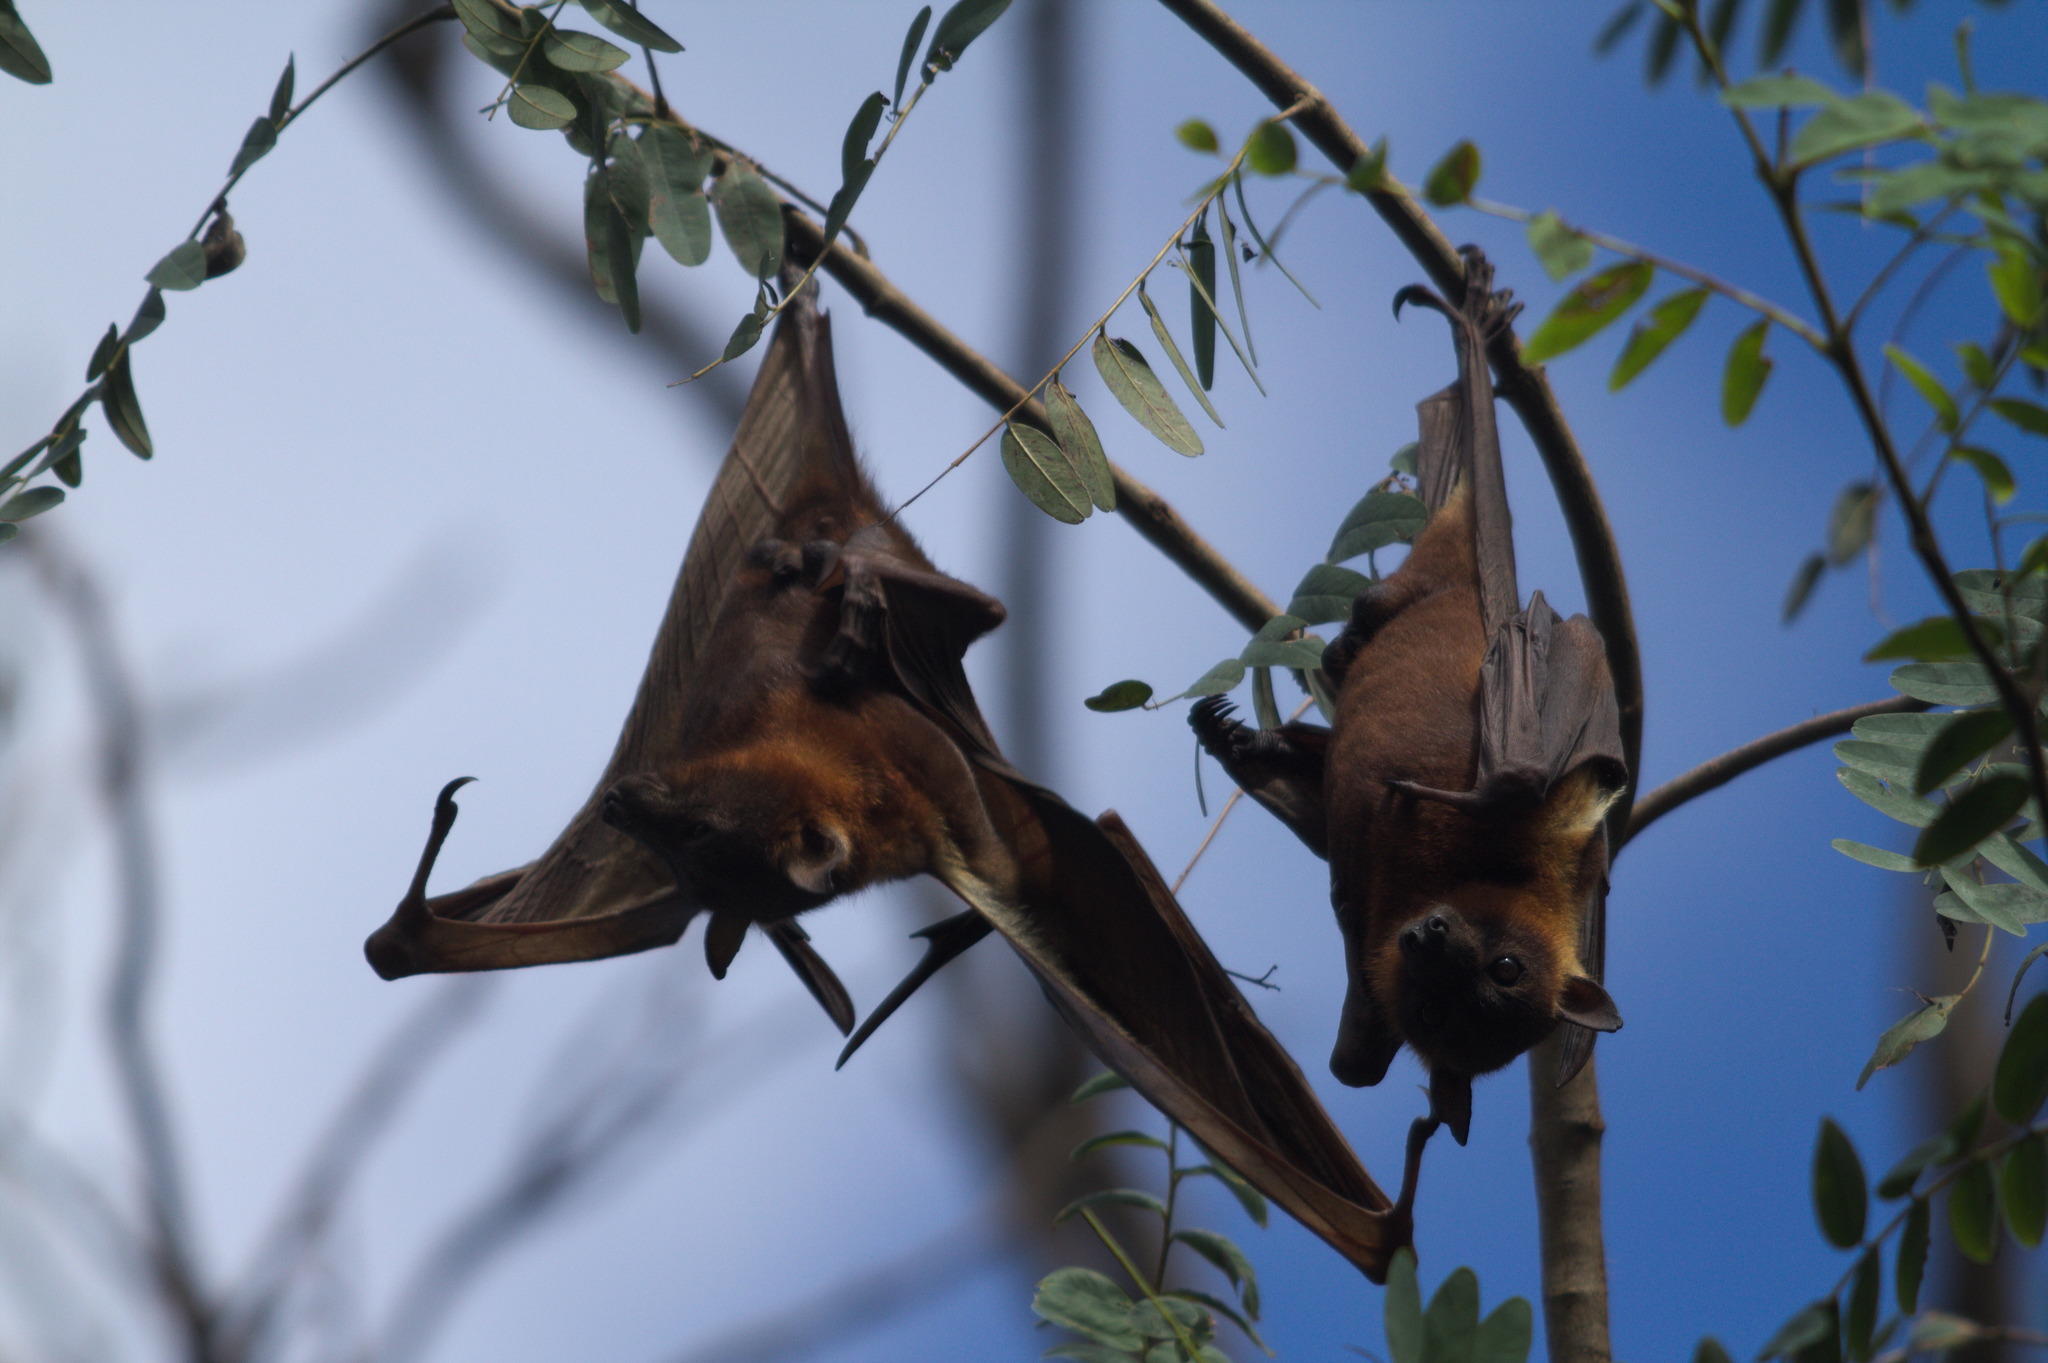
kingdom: Animalia
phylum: Chordata
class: Mammalia
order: Chiroptera
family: Pteropodidae
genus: Pteropus
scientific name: Pteropus scapulatus
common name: Little red flying fox
